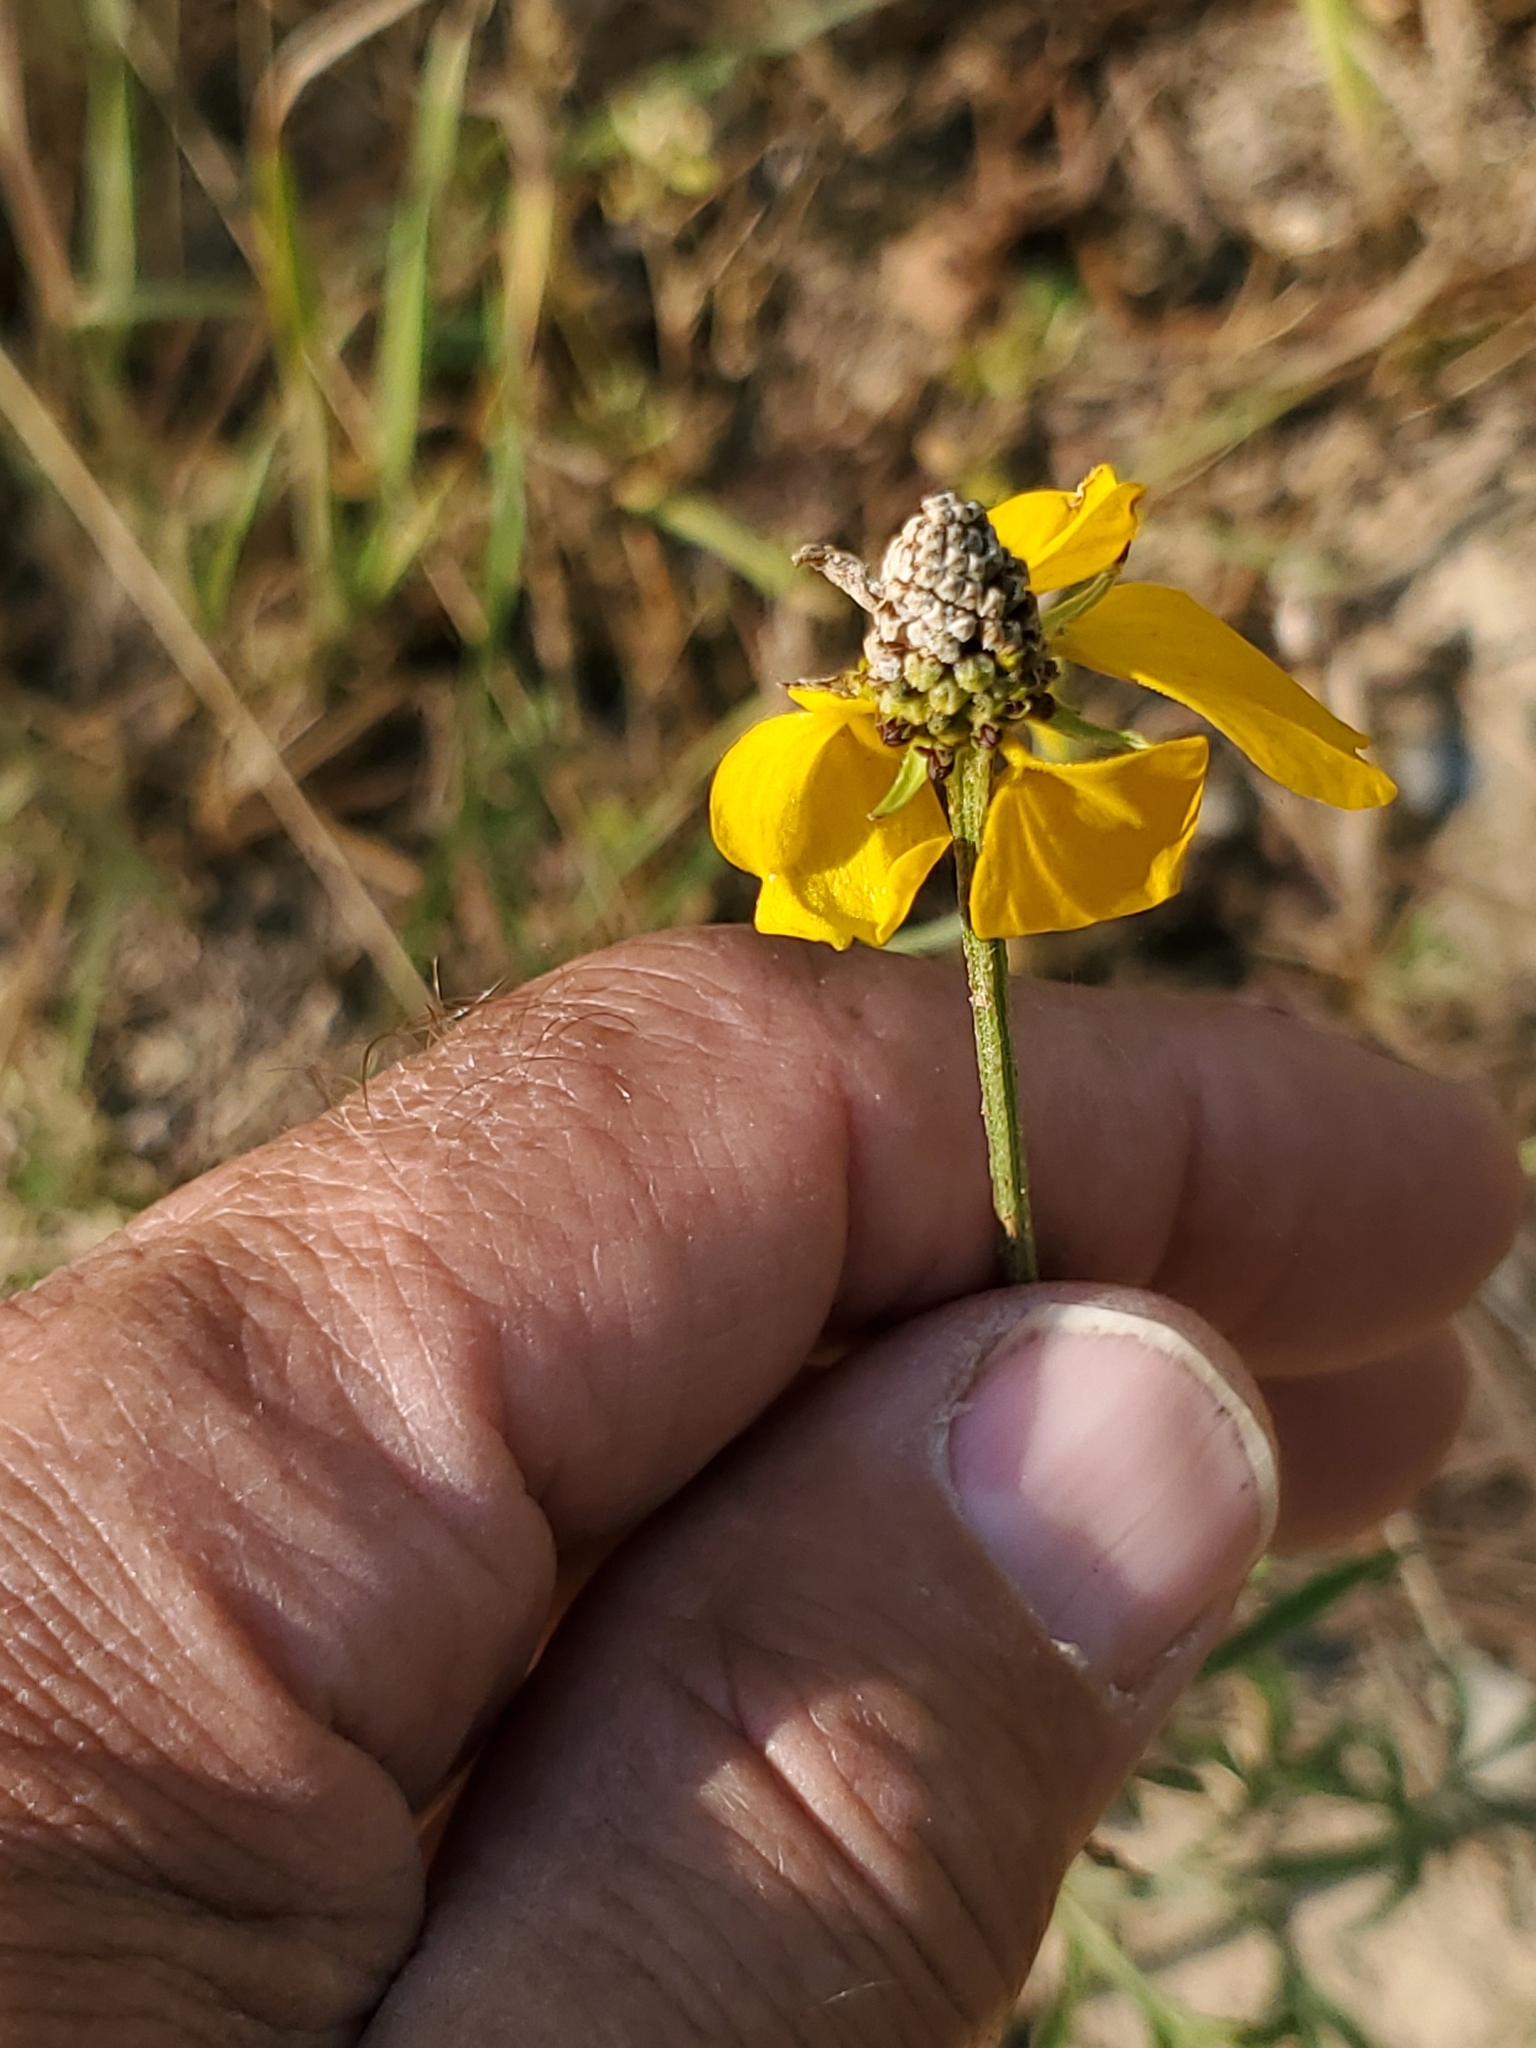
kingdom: Plantae
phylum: Tracheophyta
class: Magnoliopsida
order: Asterales
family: Asteraceae
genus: Ratibida
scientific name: Ratibida columnifera
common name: Prairie coneflower
